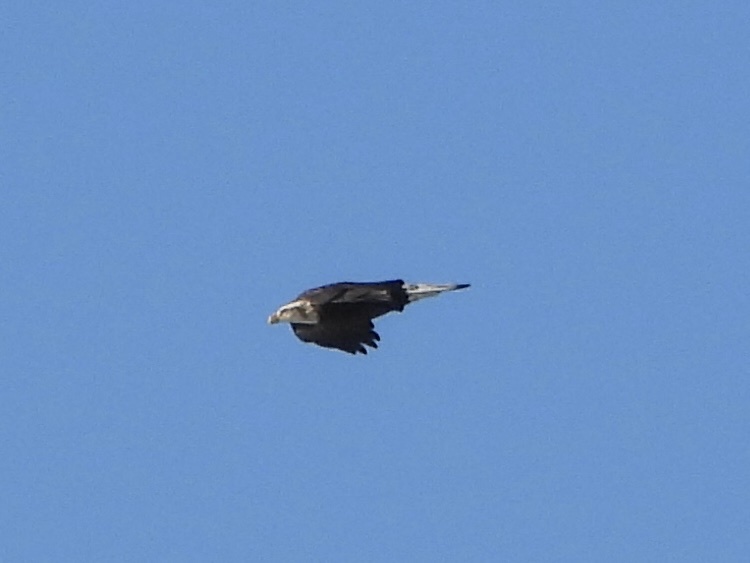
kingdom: Animalia
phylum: Chordata
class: Aves
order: Accipitriformes
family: Accipitridae
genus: Haliaeetus
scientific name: Haliaeetus leucocephalus
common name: Bald eagle
